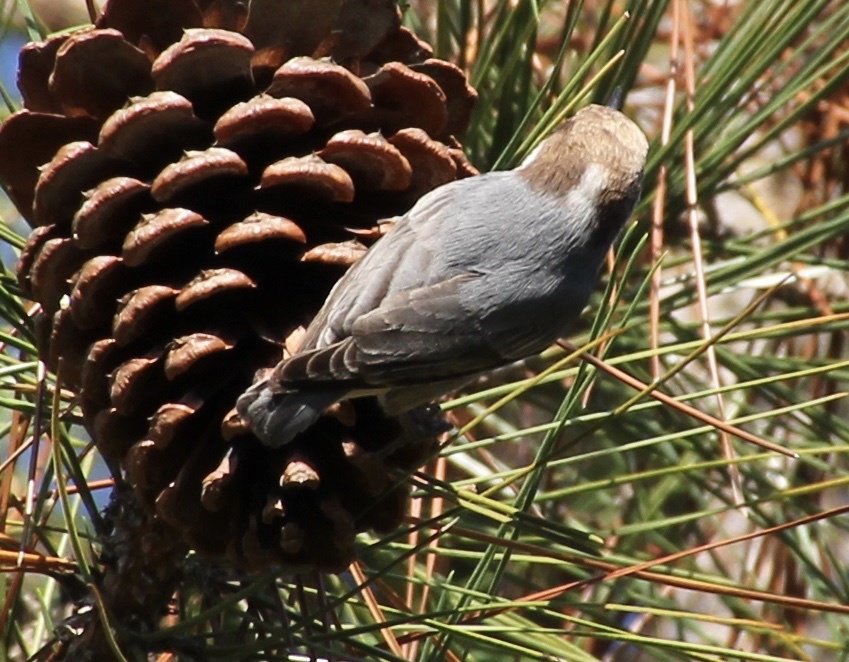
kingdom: Animalia
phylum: Chordata
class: Aves
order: Passeriformes
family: Sittidae
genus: Sitta
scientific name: Sitta pusilla
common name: Brown-headed nuthatch
